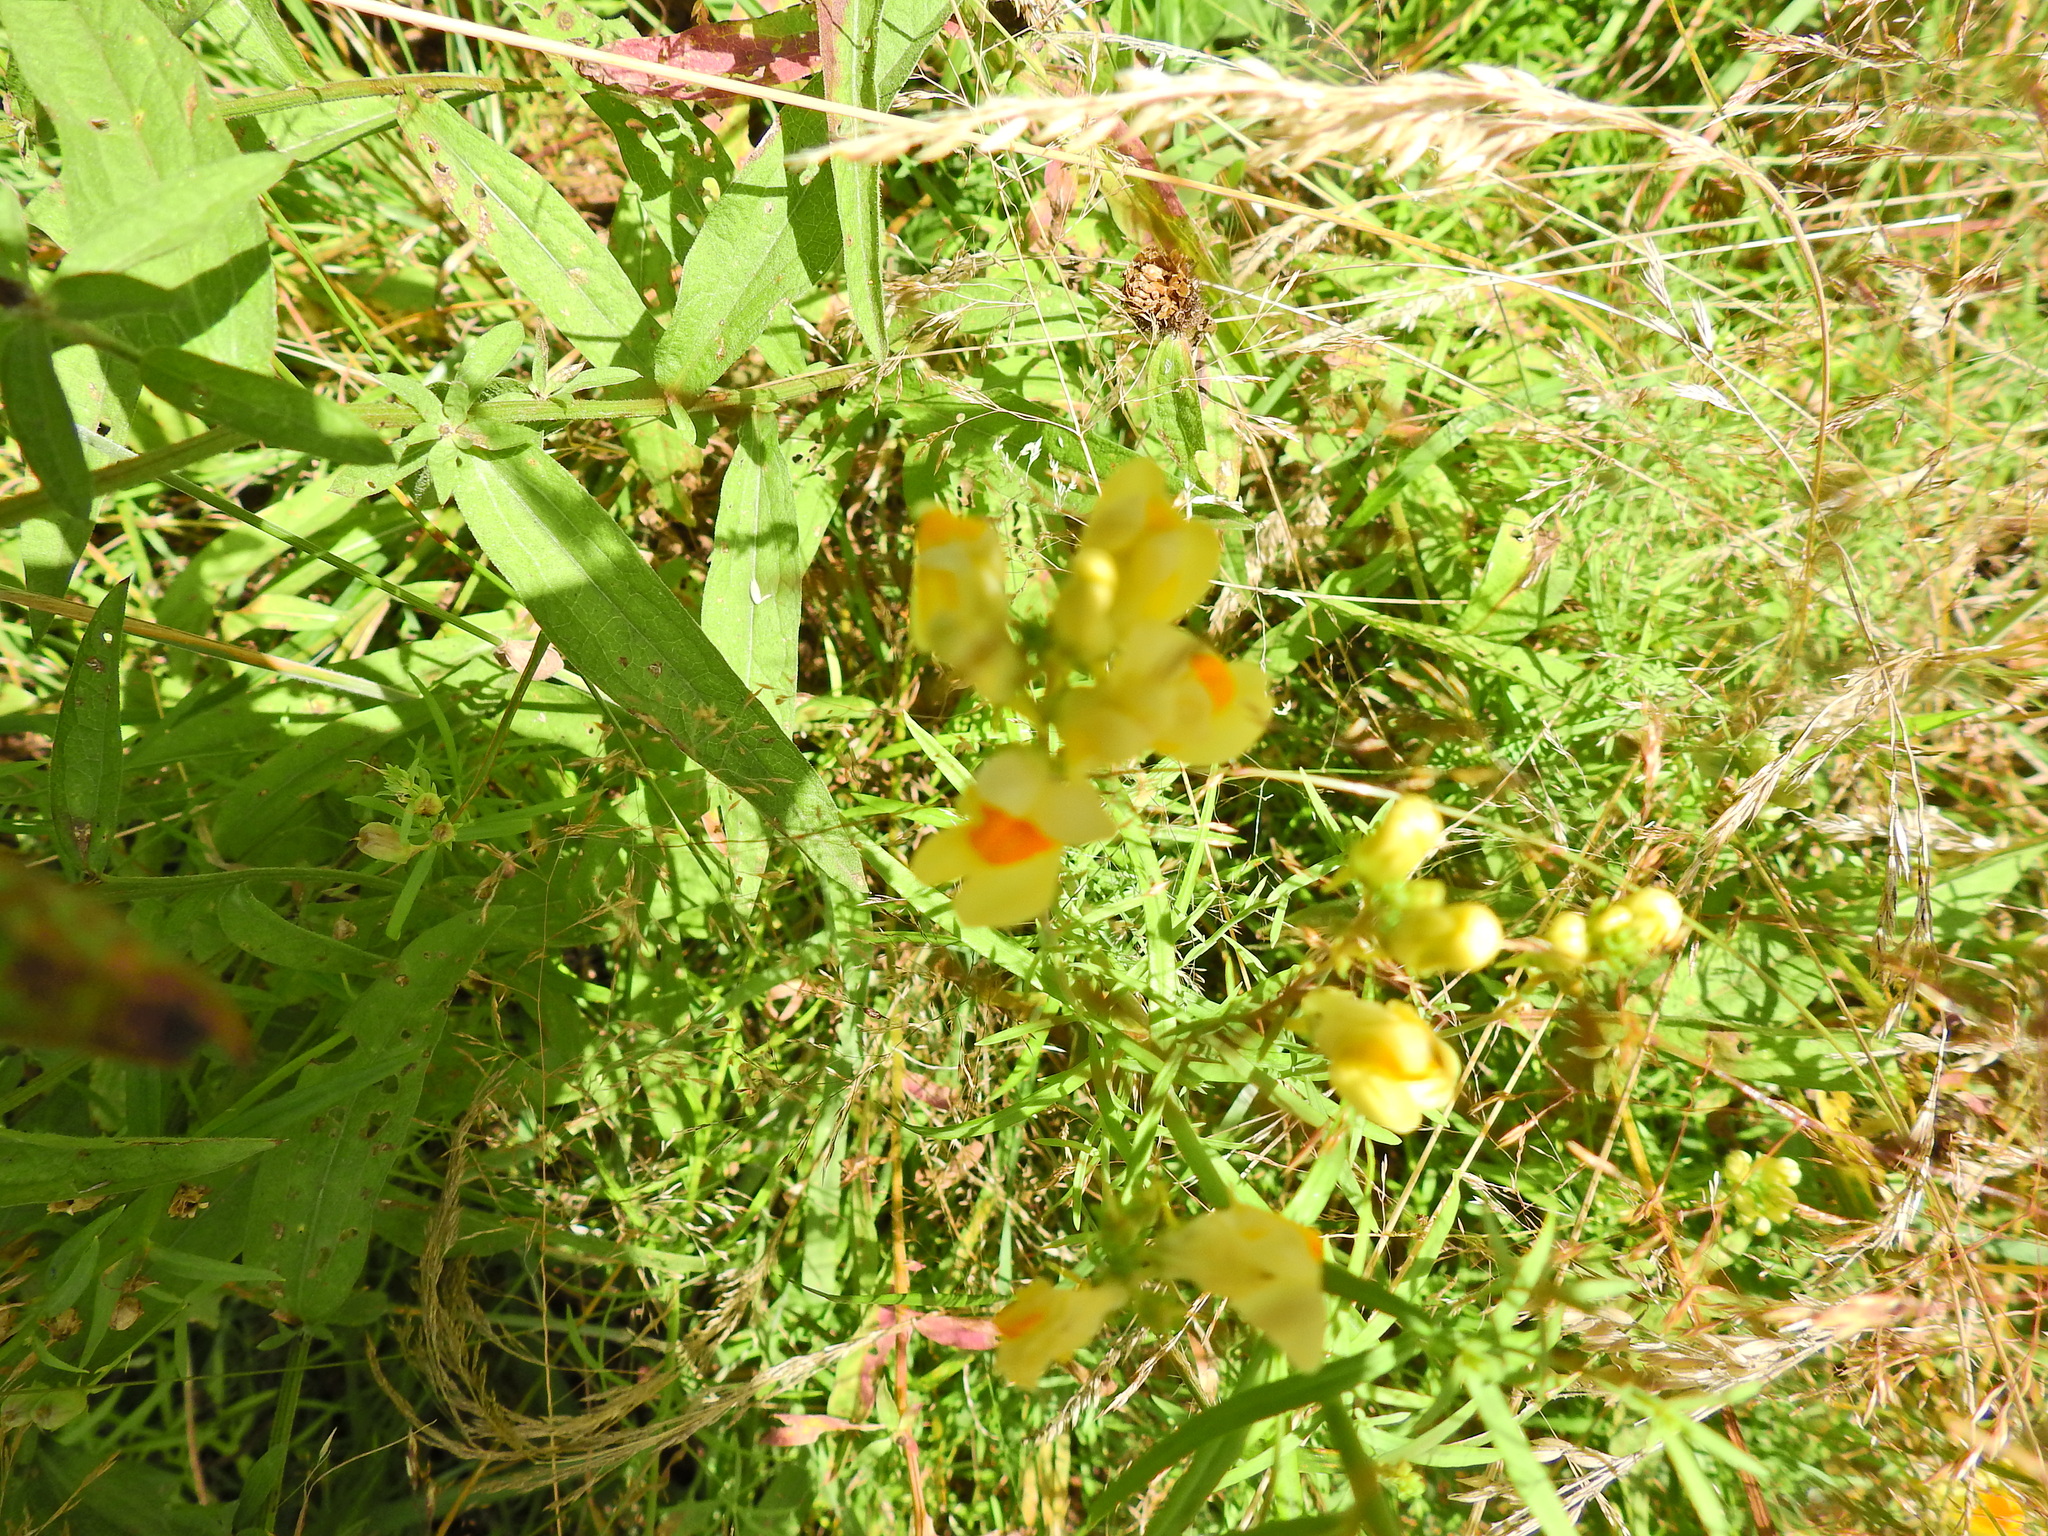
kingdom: Plantae
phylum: Tracheophyta
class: Magnoliopsida
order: Lamiales
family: Plantaginaceae
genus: Linaria
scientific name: Linaria vulgaris
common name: Butter and eggs
